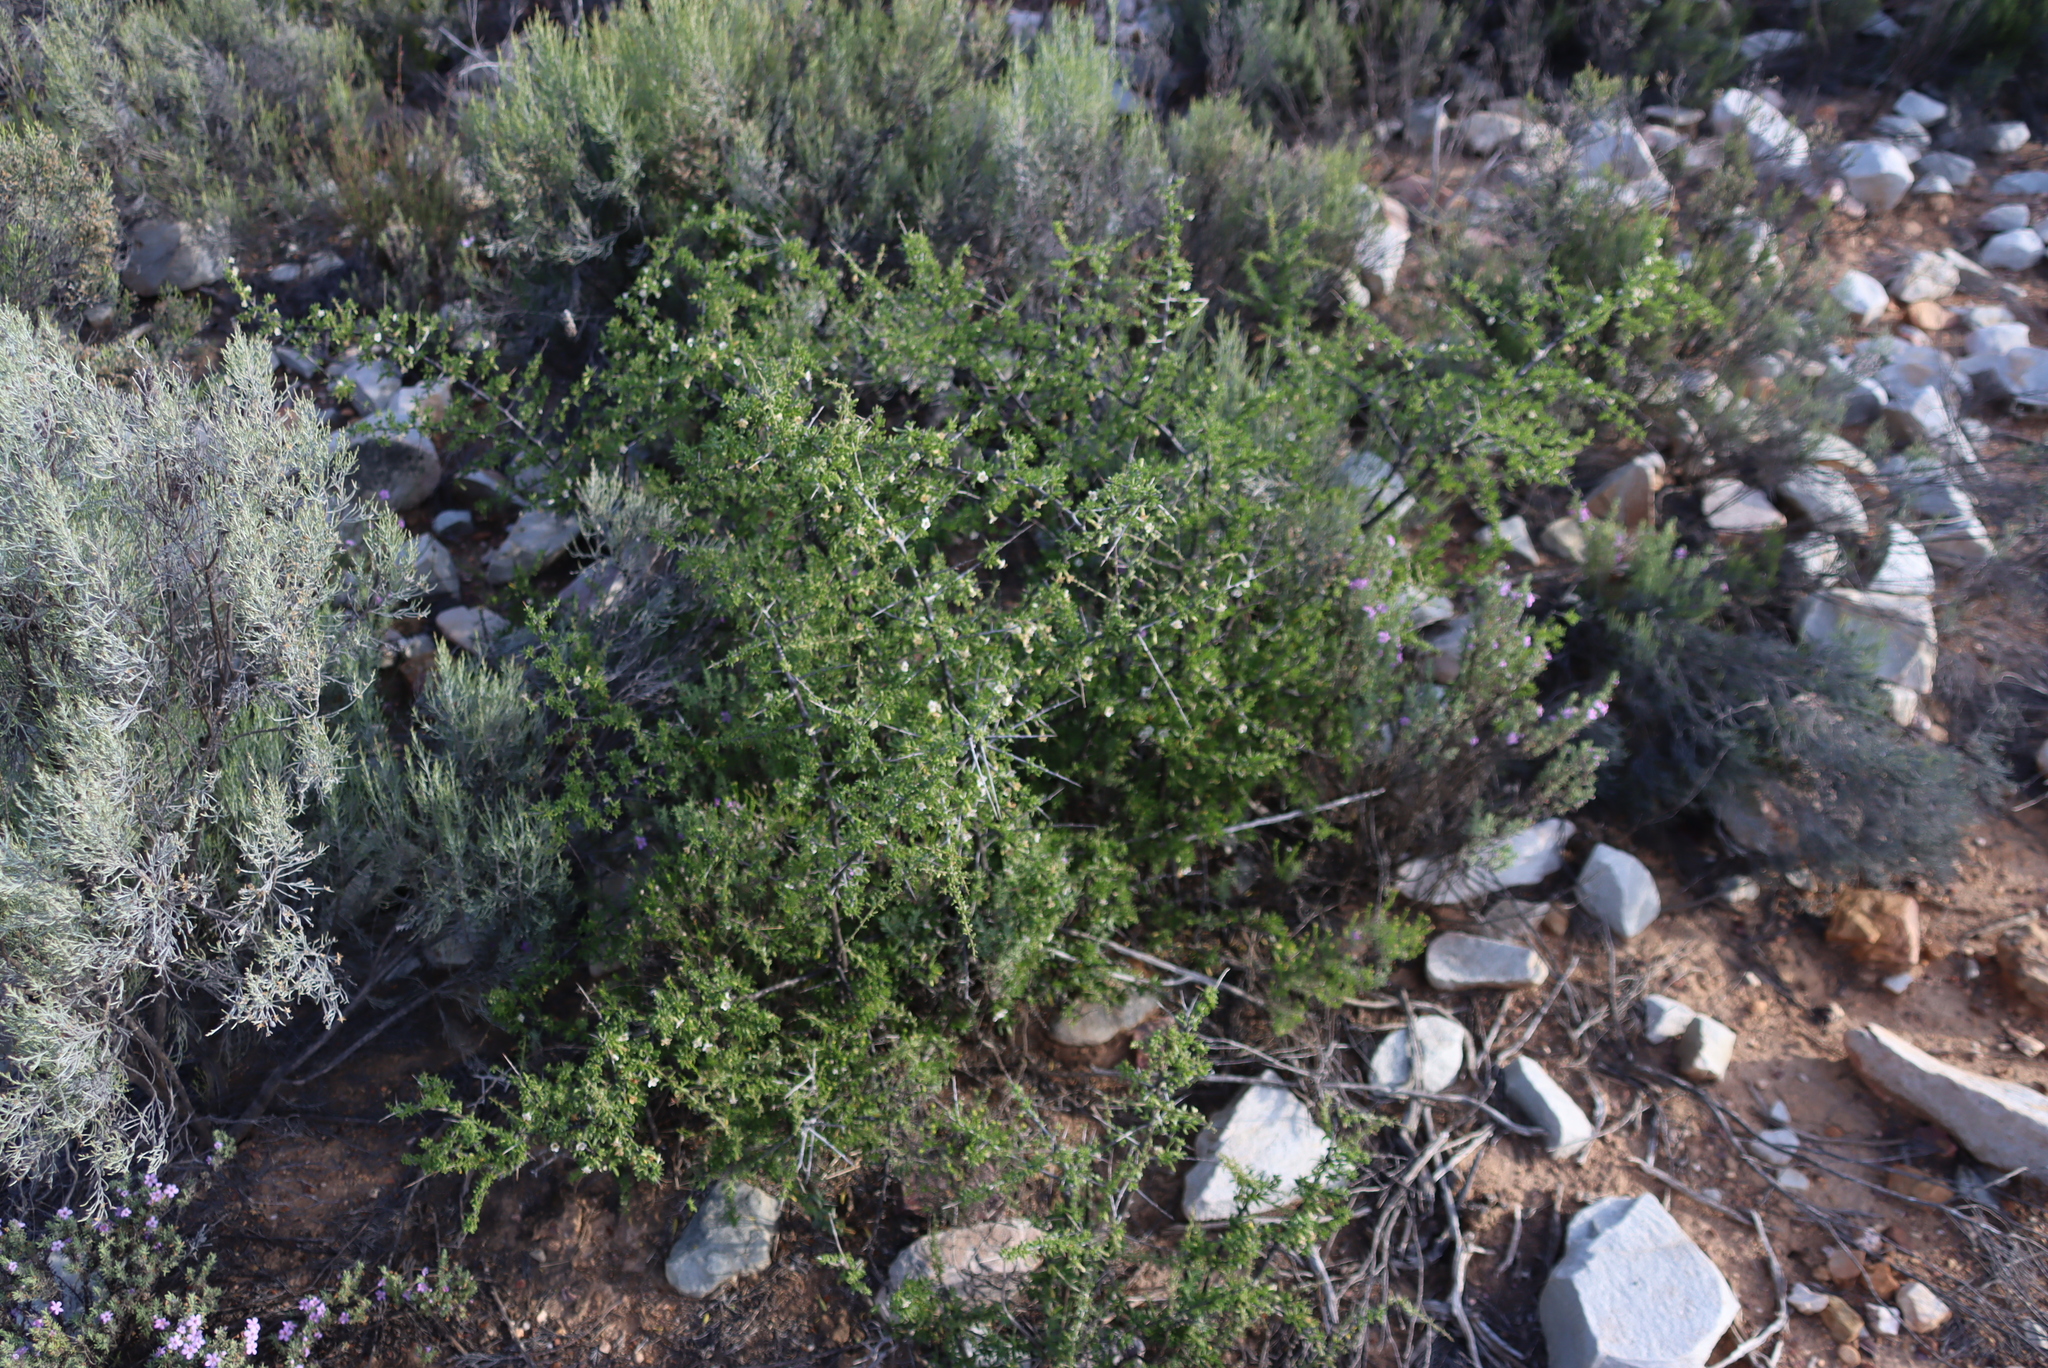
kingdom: Plantae
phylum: Tracheophyta
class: Magnoliopsida
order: Solanales
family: Solanaceae
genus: Lycium
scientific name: Lycium horridum
